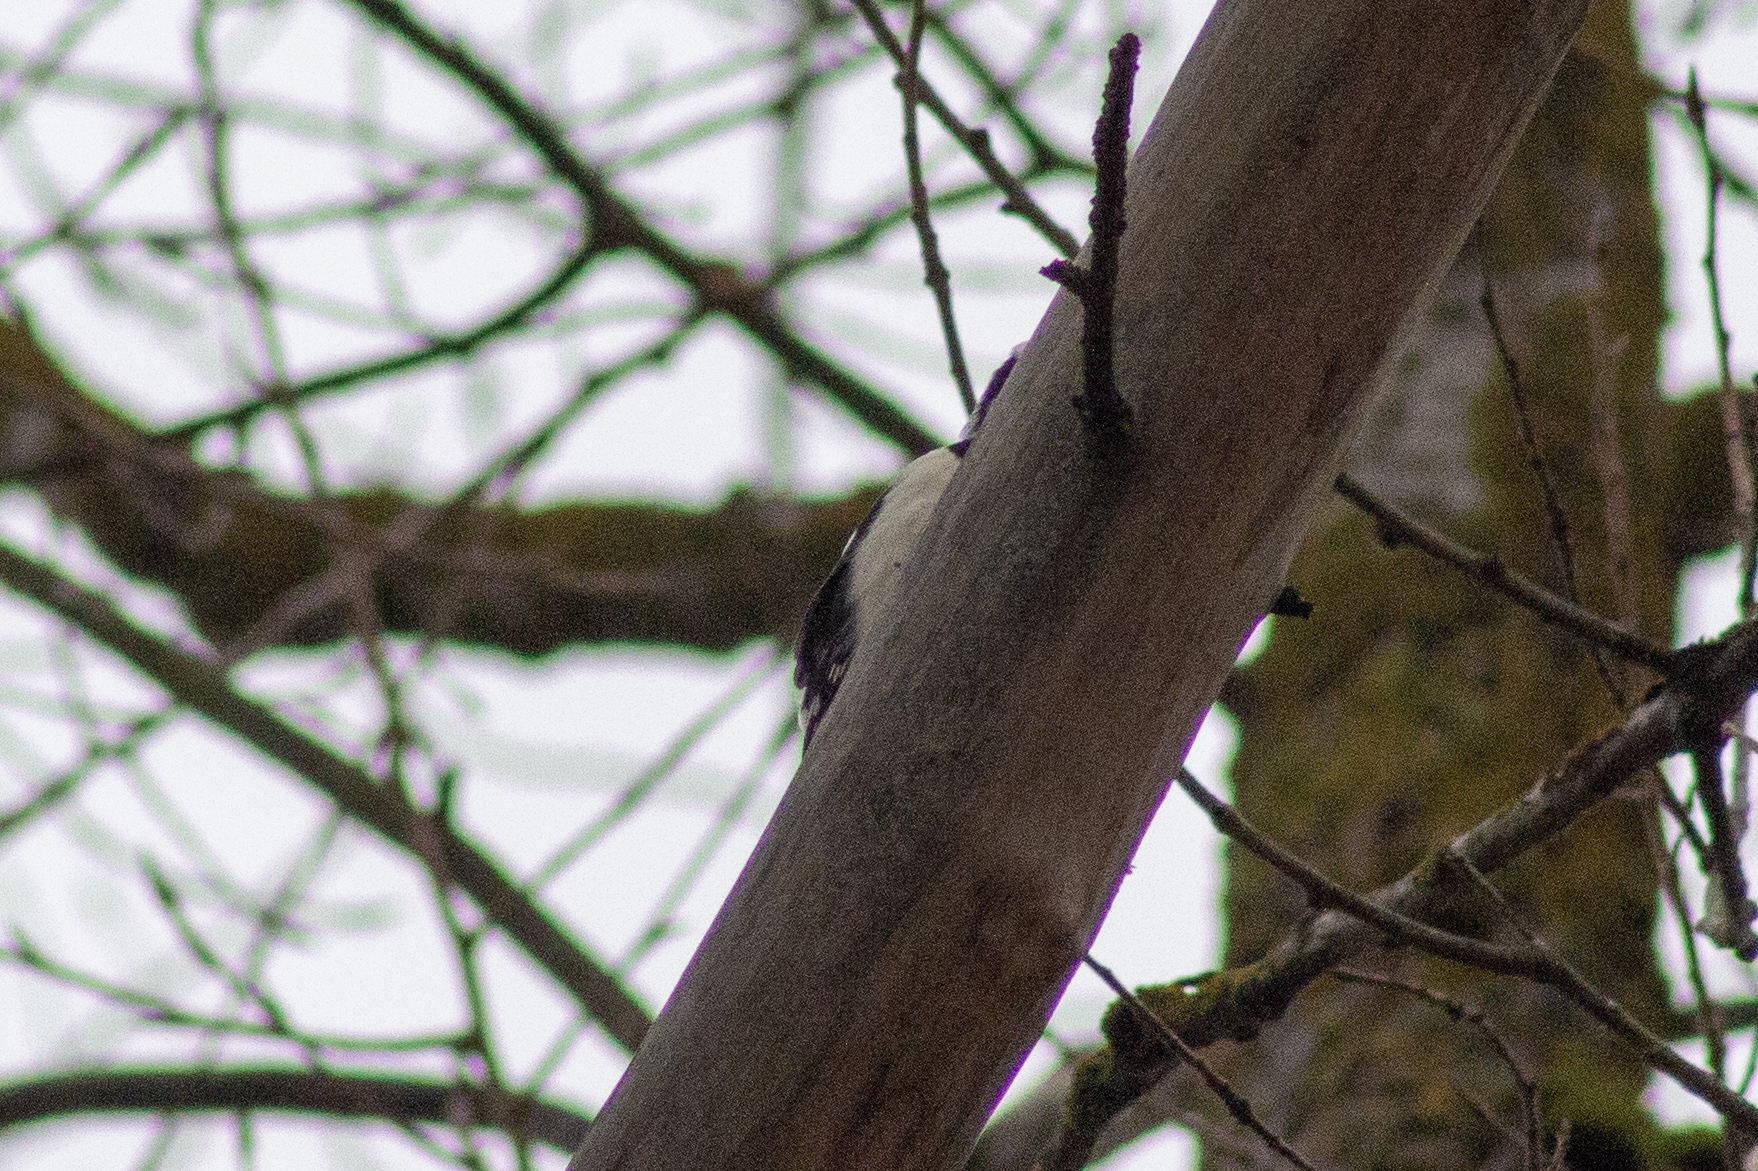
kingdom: Animalia
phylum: Chordata
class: Aves
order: Piciformes
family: Picidae
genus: Dendrocopos
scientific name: Dendrocopos
